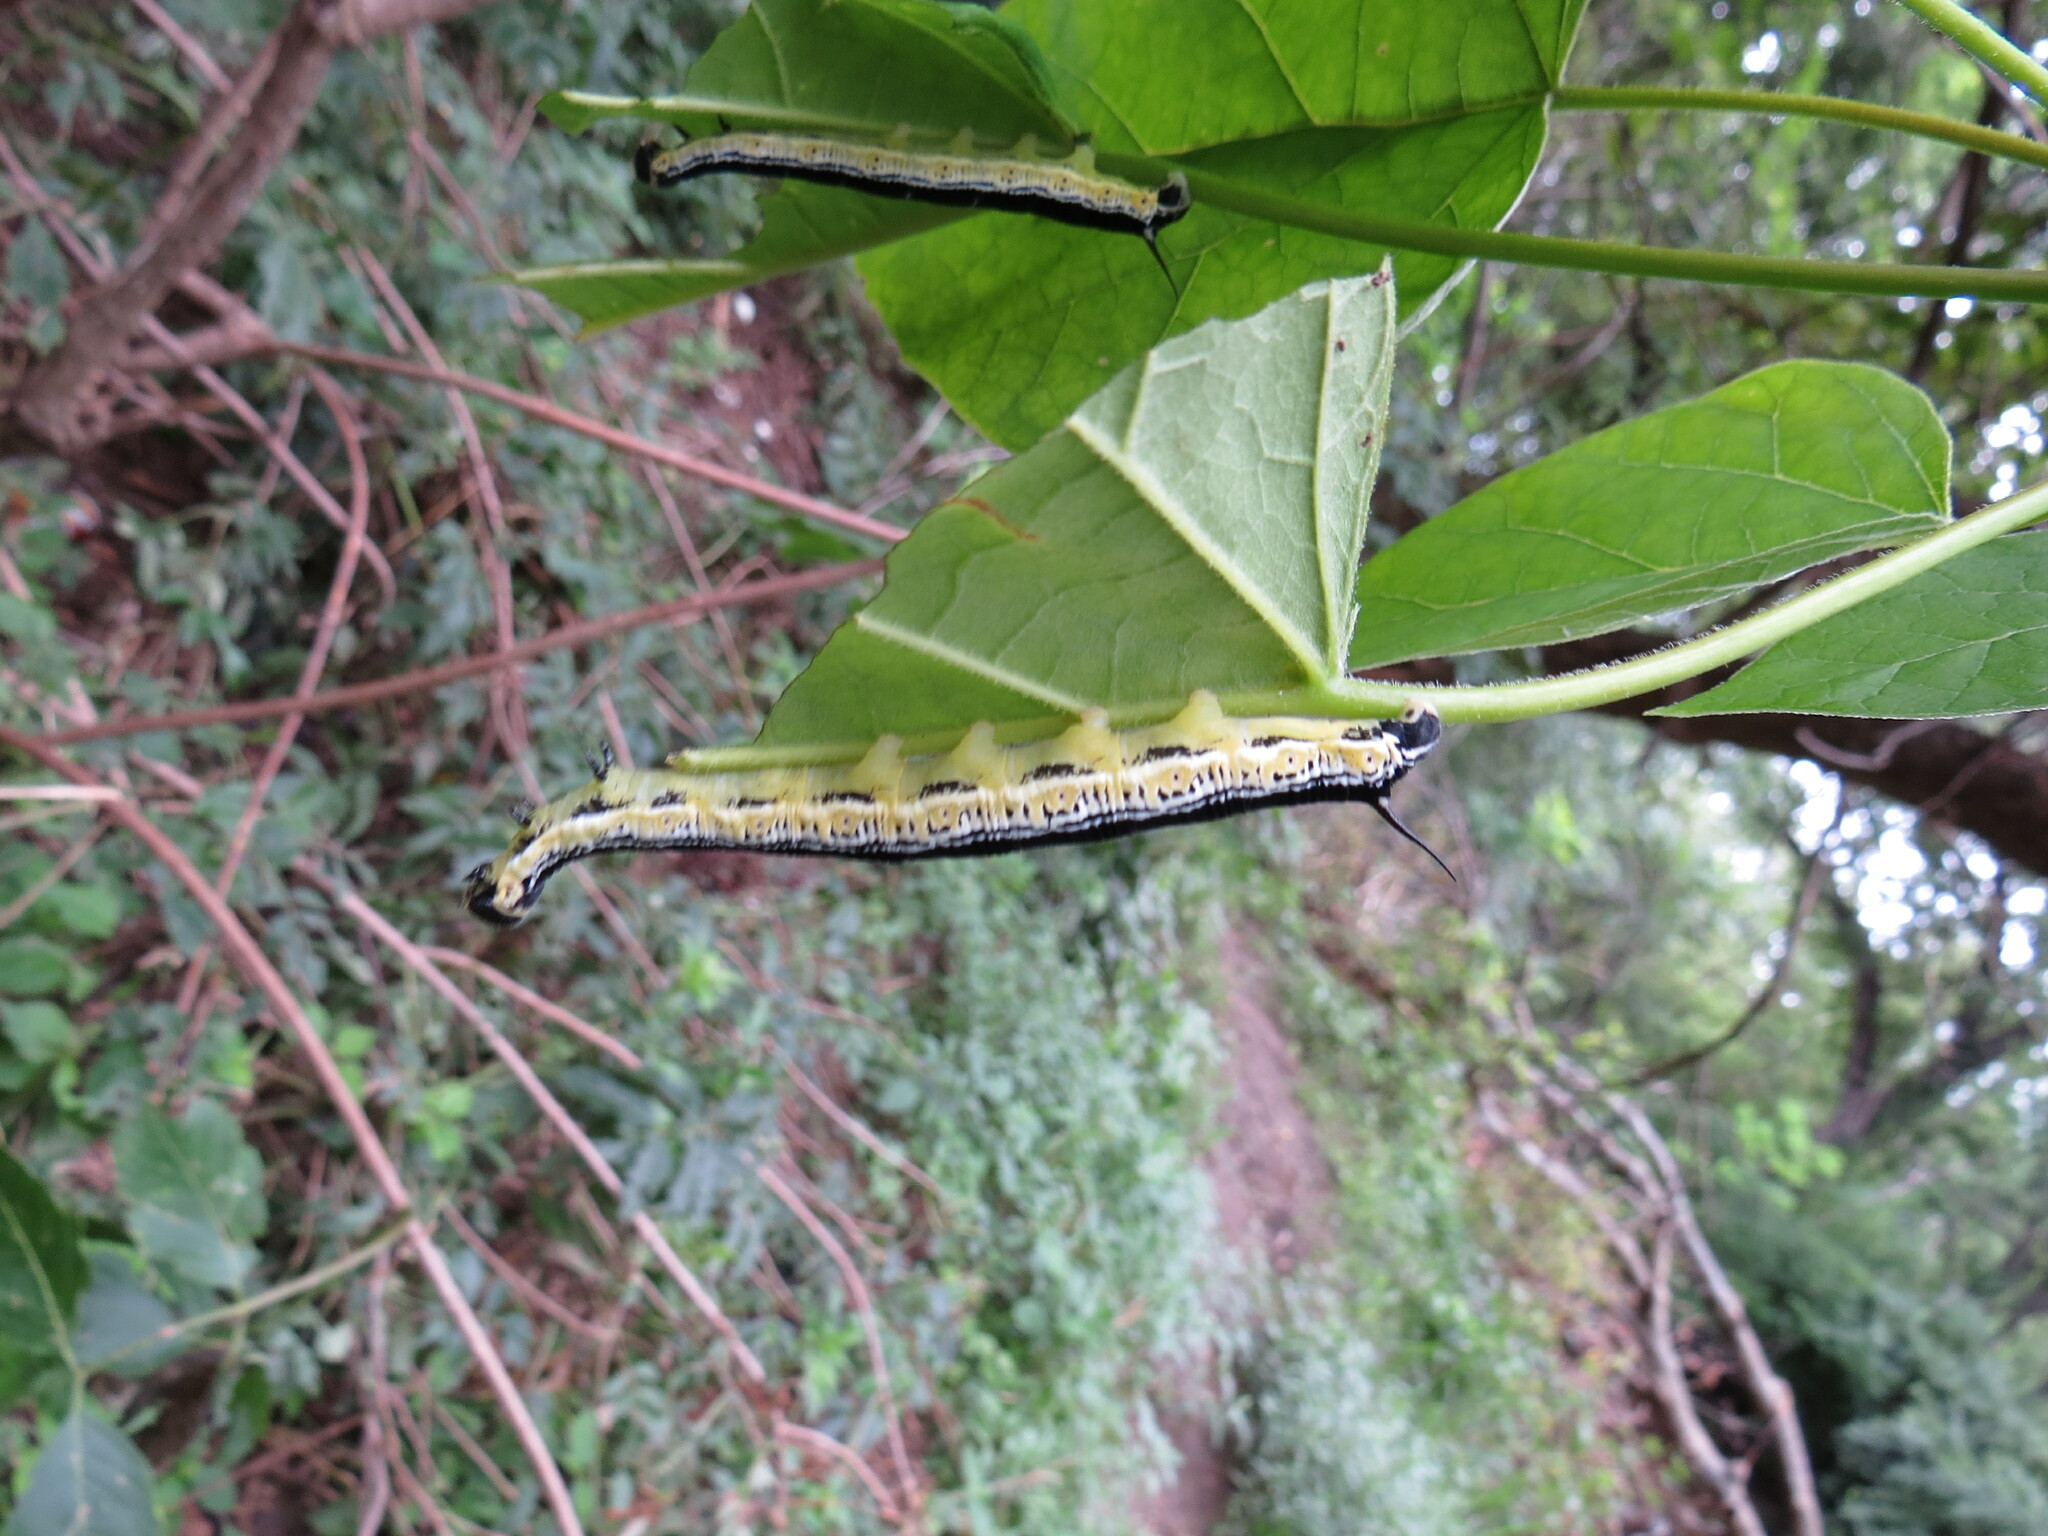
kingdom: Animalia
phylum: Arthropoda
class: Insecta
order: Lepidoptera
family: Sphingidae
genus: Ceratomia
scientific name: Ceratomia catalpae
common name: Catalpa hornworm
